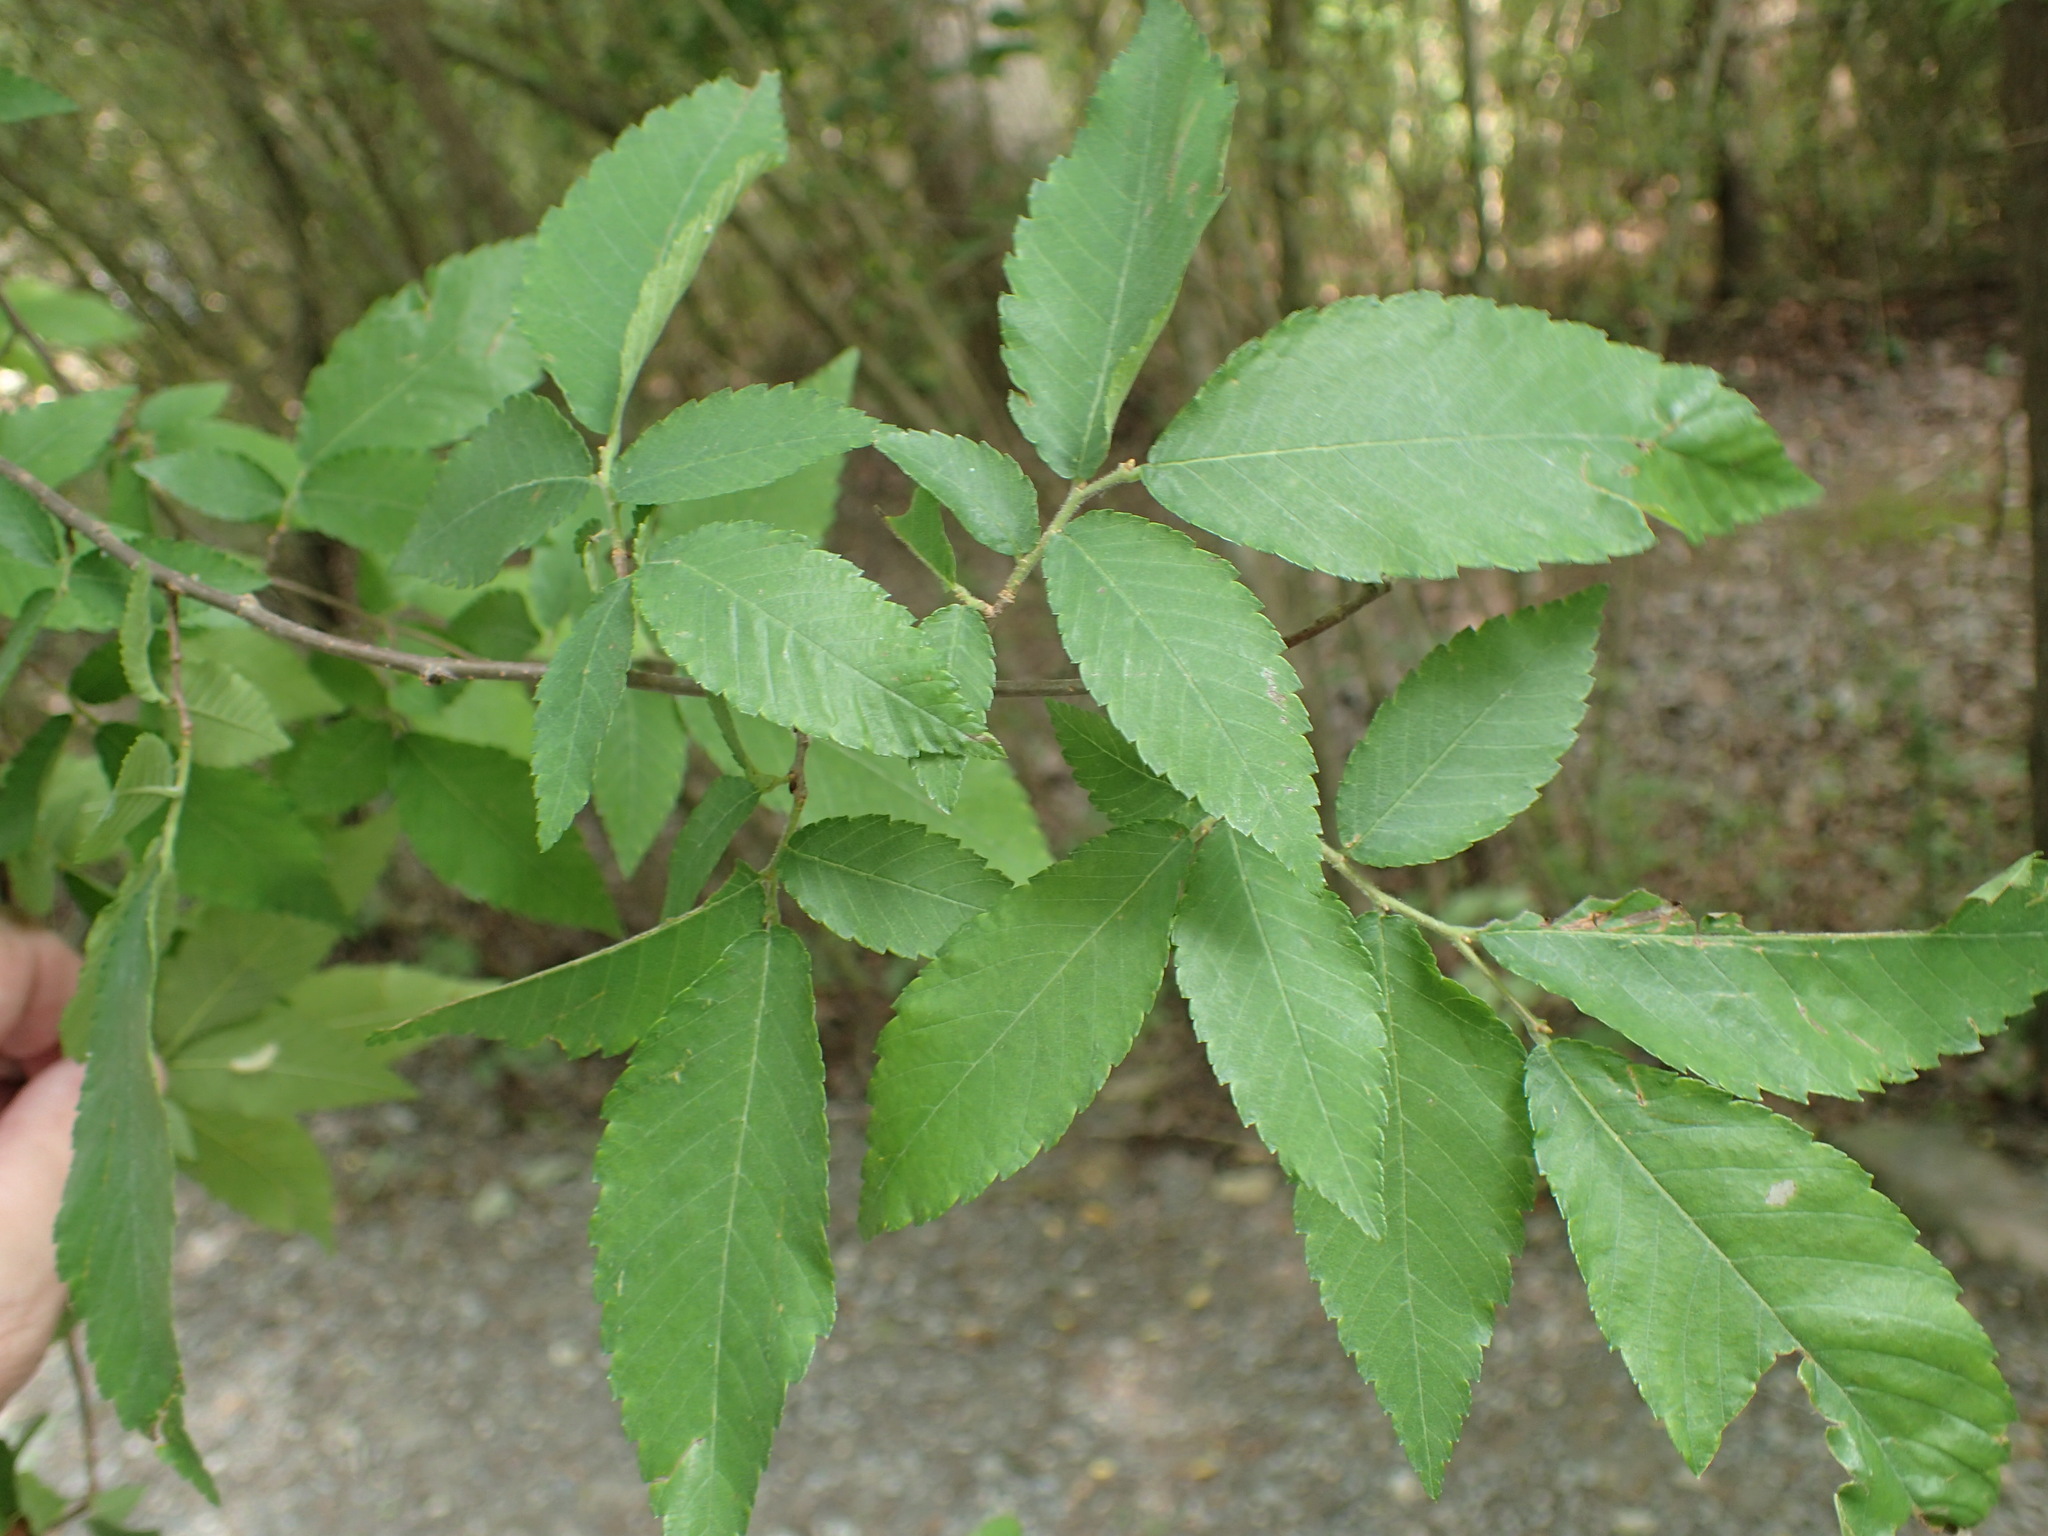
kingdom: Plantae
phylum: Tracheophyta
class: Magnoliopsida
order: Rosales
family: Ulmaceae
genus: Ulmus
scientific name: Ulmus alata
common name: Winged elm
